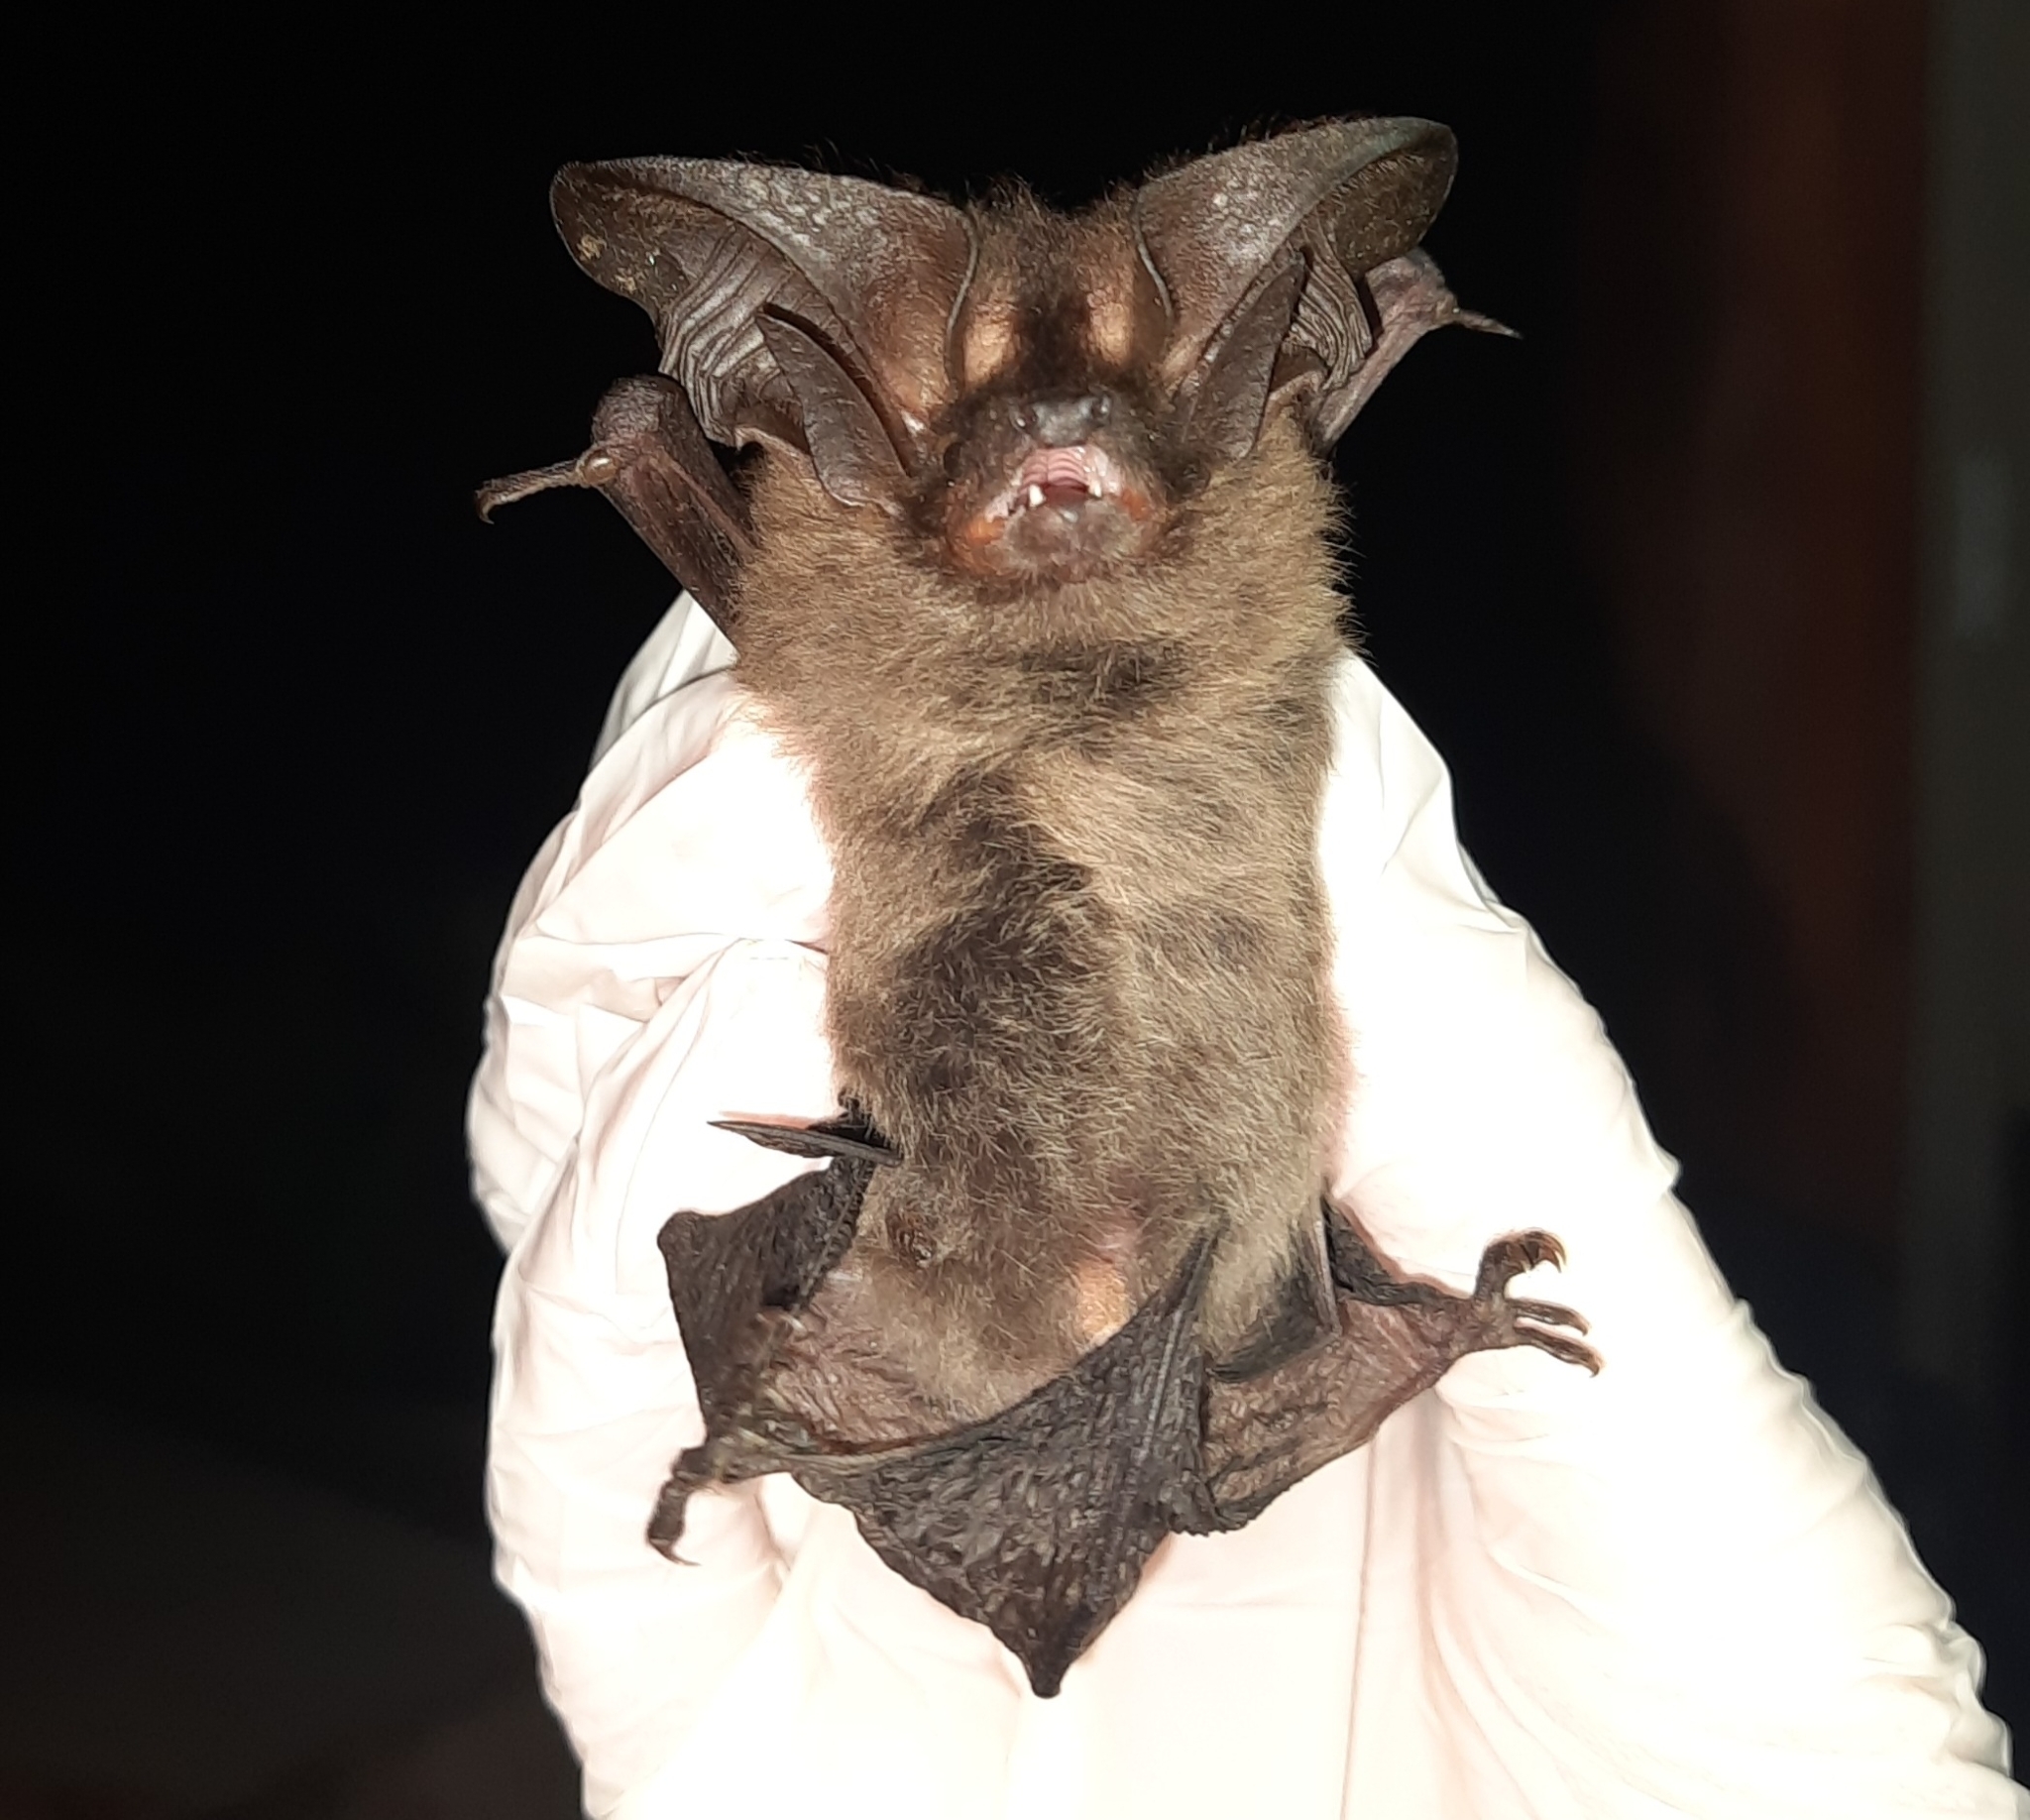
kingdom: Animalia
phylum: Chordata
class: Mammalia
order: Chiroptera
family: Vespertilionidae
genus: Histiotus
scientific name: Histiotus velatus
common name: Tropical big-eared brown bat
